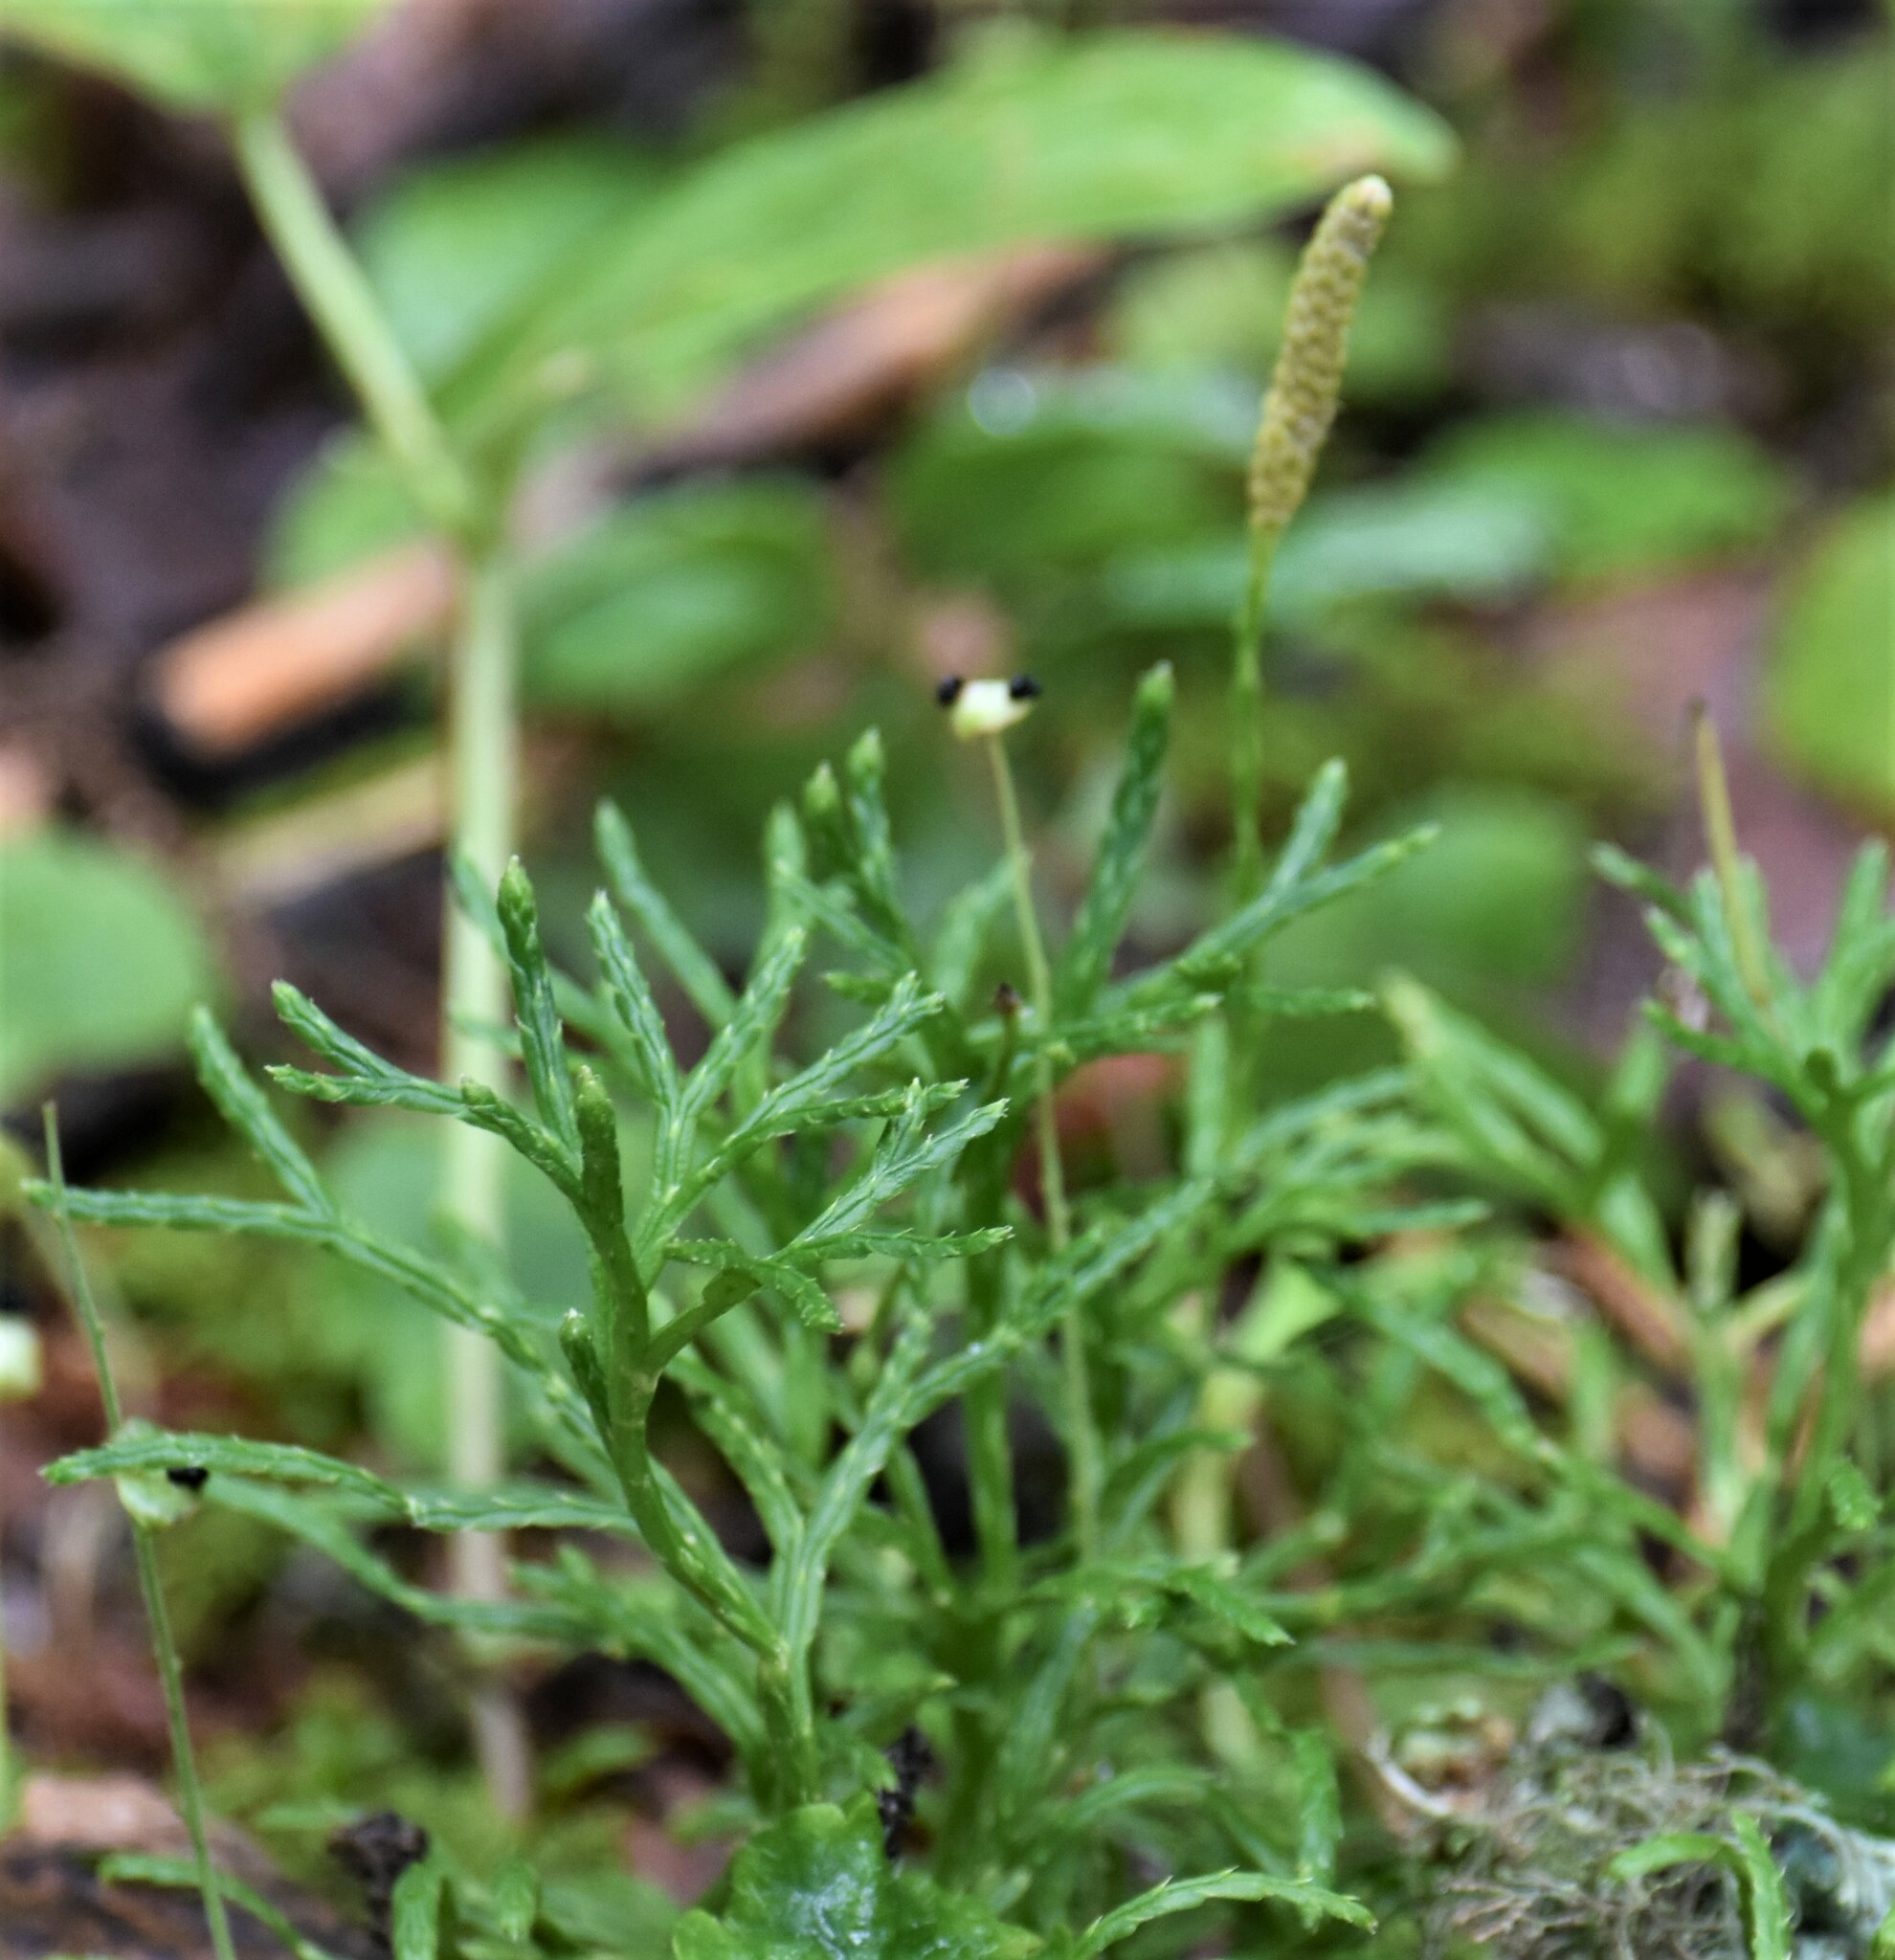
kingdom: Plantae
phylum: Tracheophyta
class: Lycopodiopsida
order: Lycopodiales
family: Lycopodiaceae
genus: Diphasiastrum
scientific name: Diphasiastrum complanatum
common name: Northern running-pine
